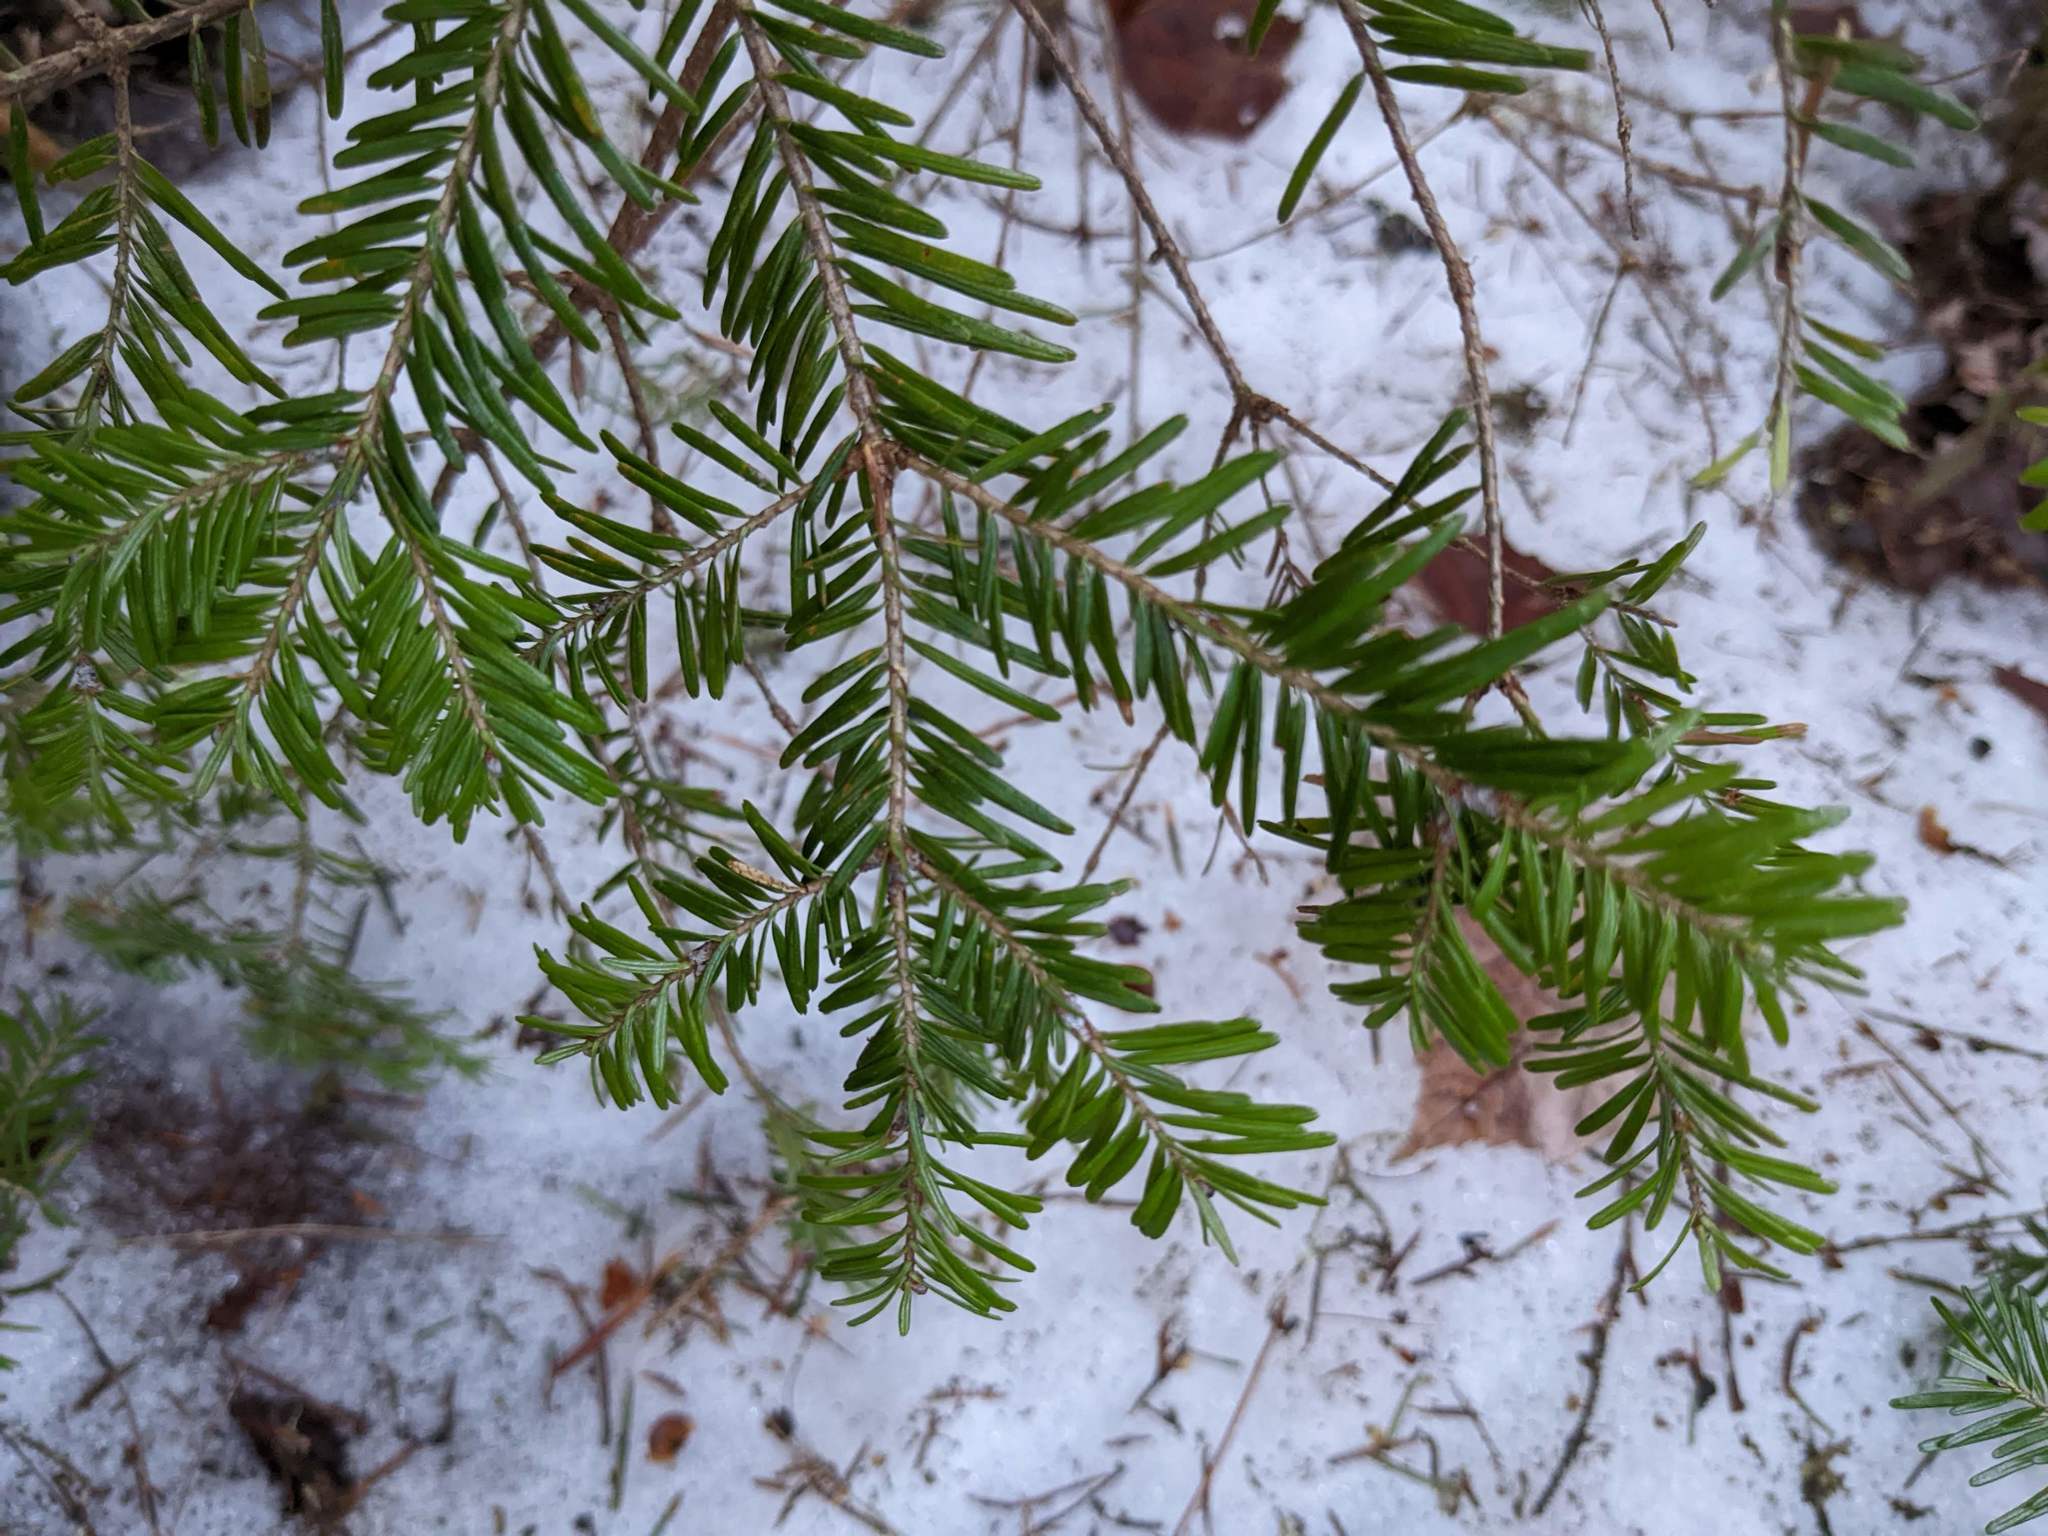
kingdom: Plantae
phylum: Tracheophyta
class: Pinopsida
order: Pinales
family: Pinaceae
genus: Abies
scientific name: Abies balsamea
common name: Balsam fir
